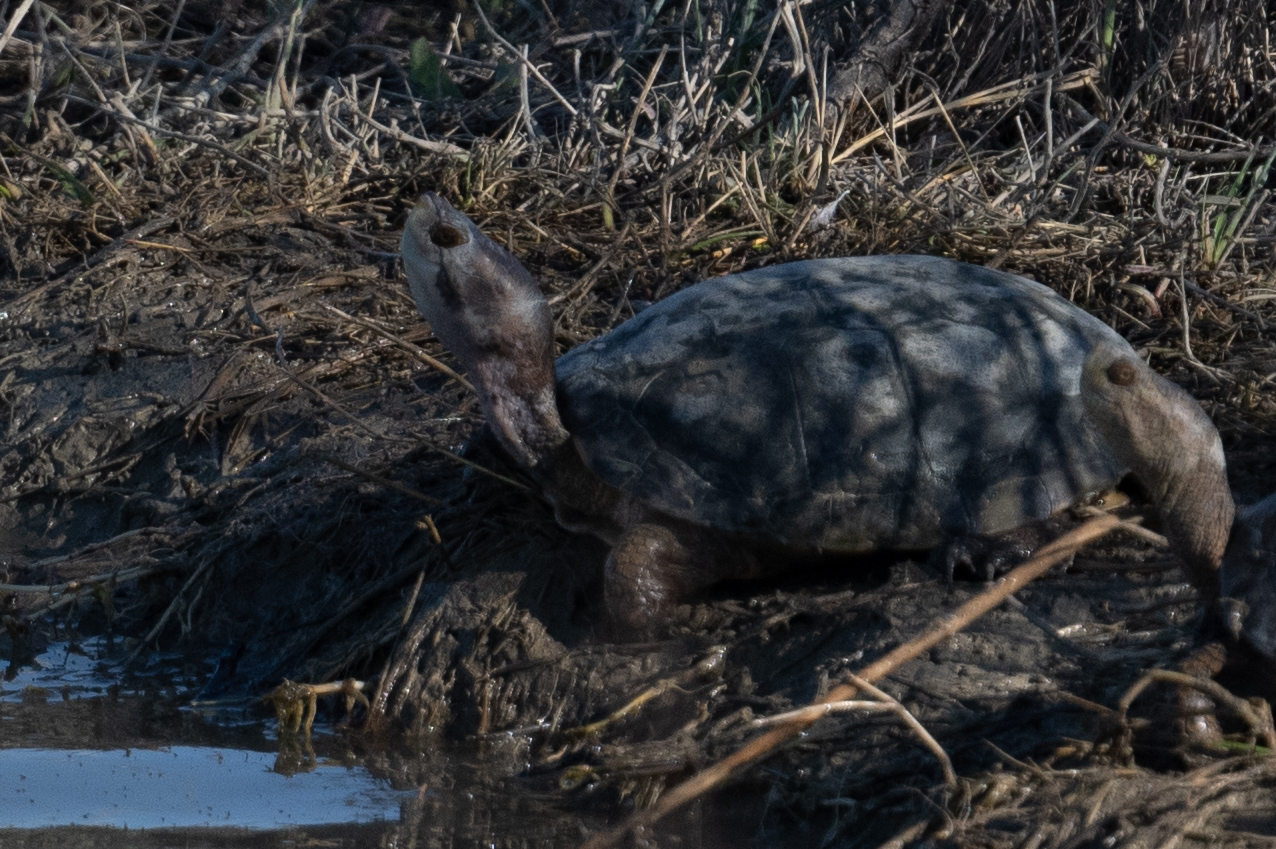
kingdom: Animalia
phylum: Chordata
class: Testudines
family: Emydidae
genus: Actinemys
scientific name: Actinemys marmorata
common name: Western pond turtle
